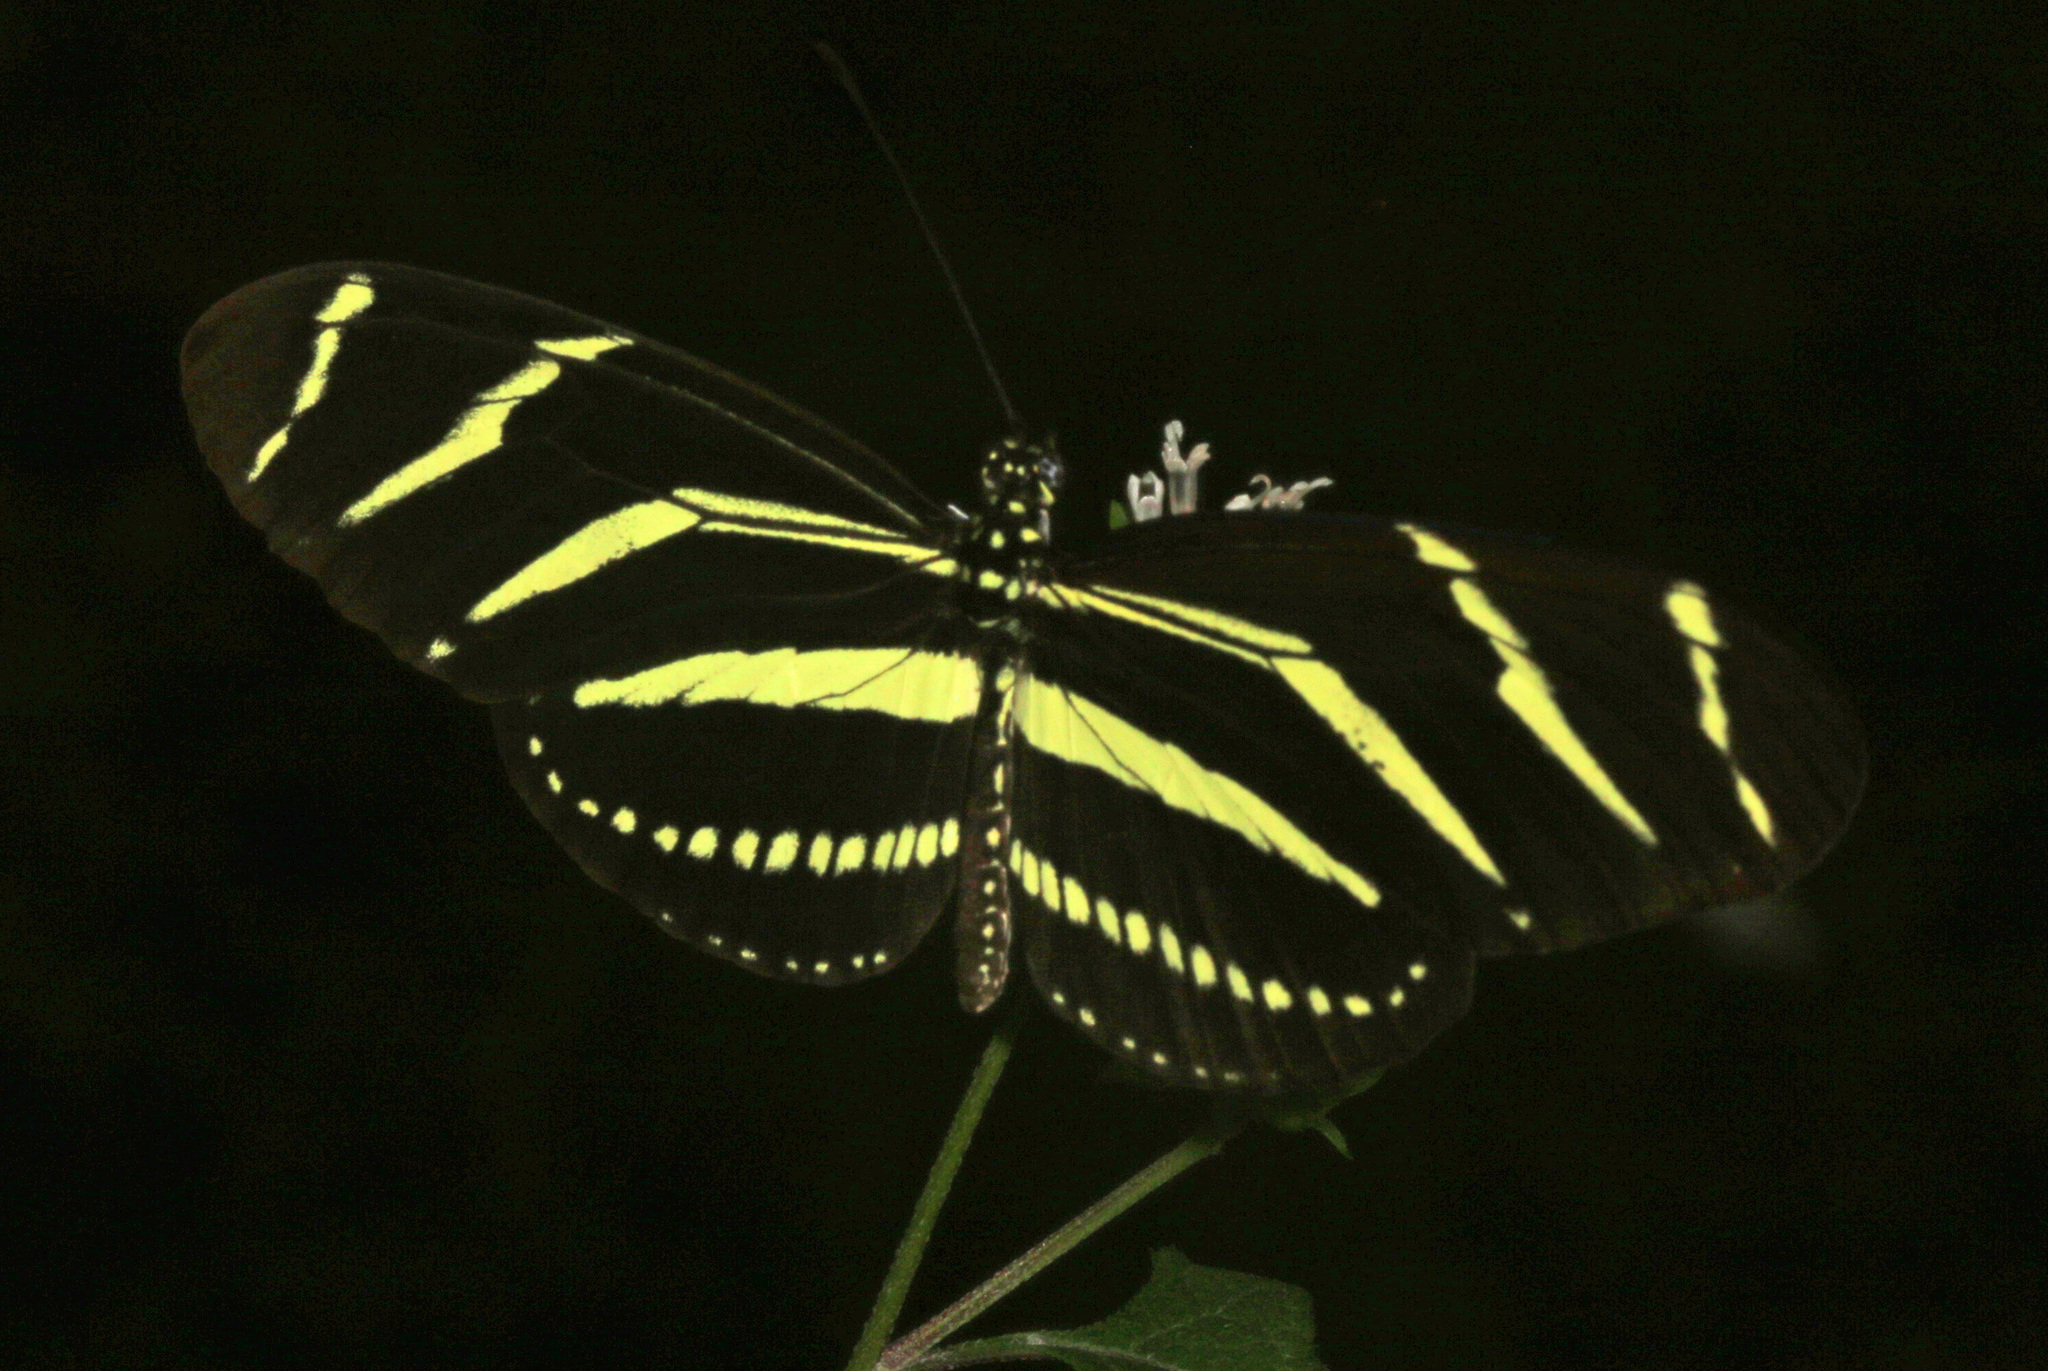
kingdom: Animalia
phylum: Arthropoda
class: Insecta
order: Lepidoptera
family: Nymphalidae
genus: Heliconius
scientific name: Heliconius charithonia
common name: Zebra long wing
